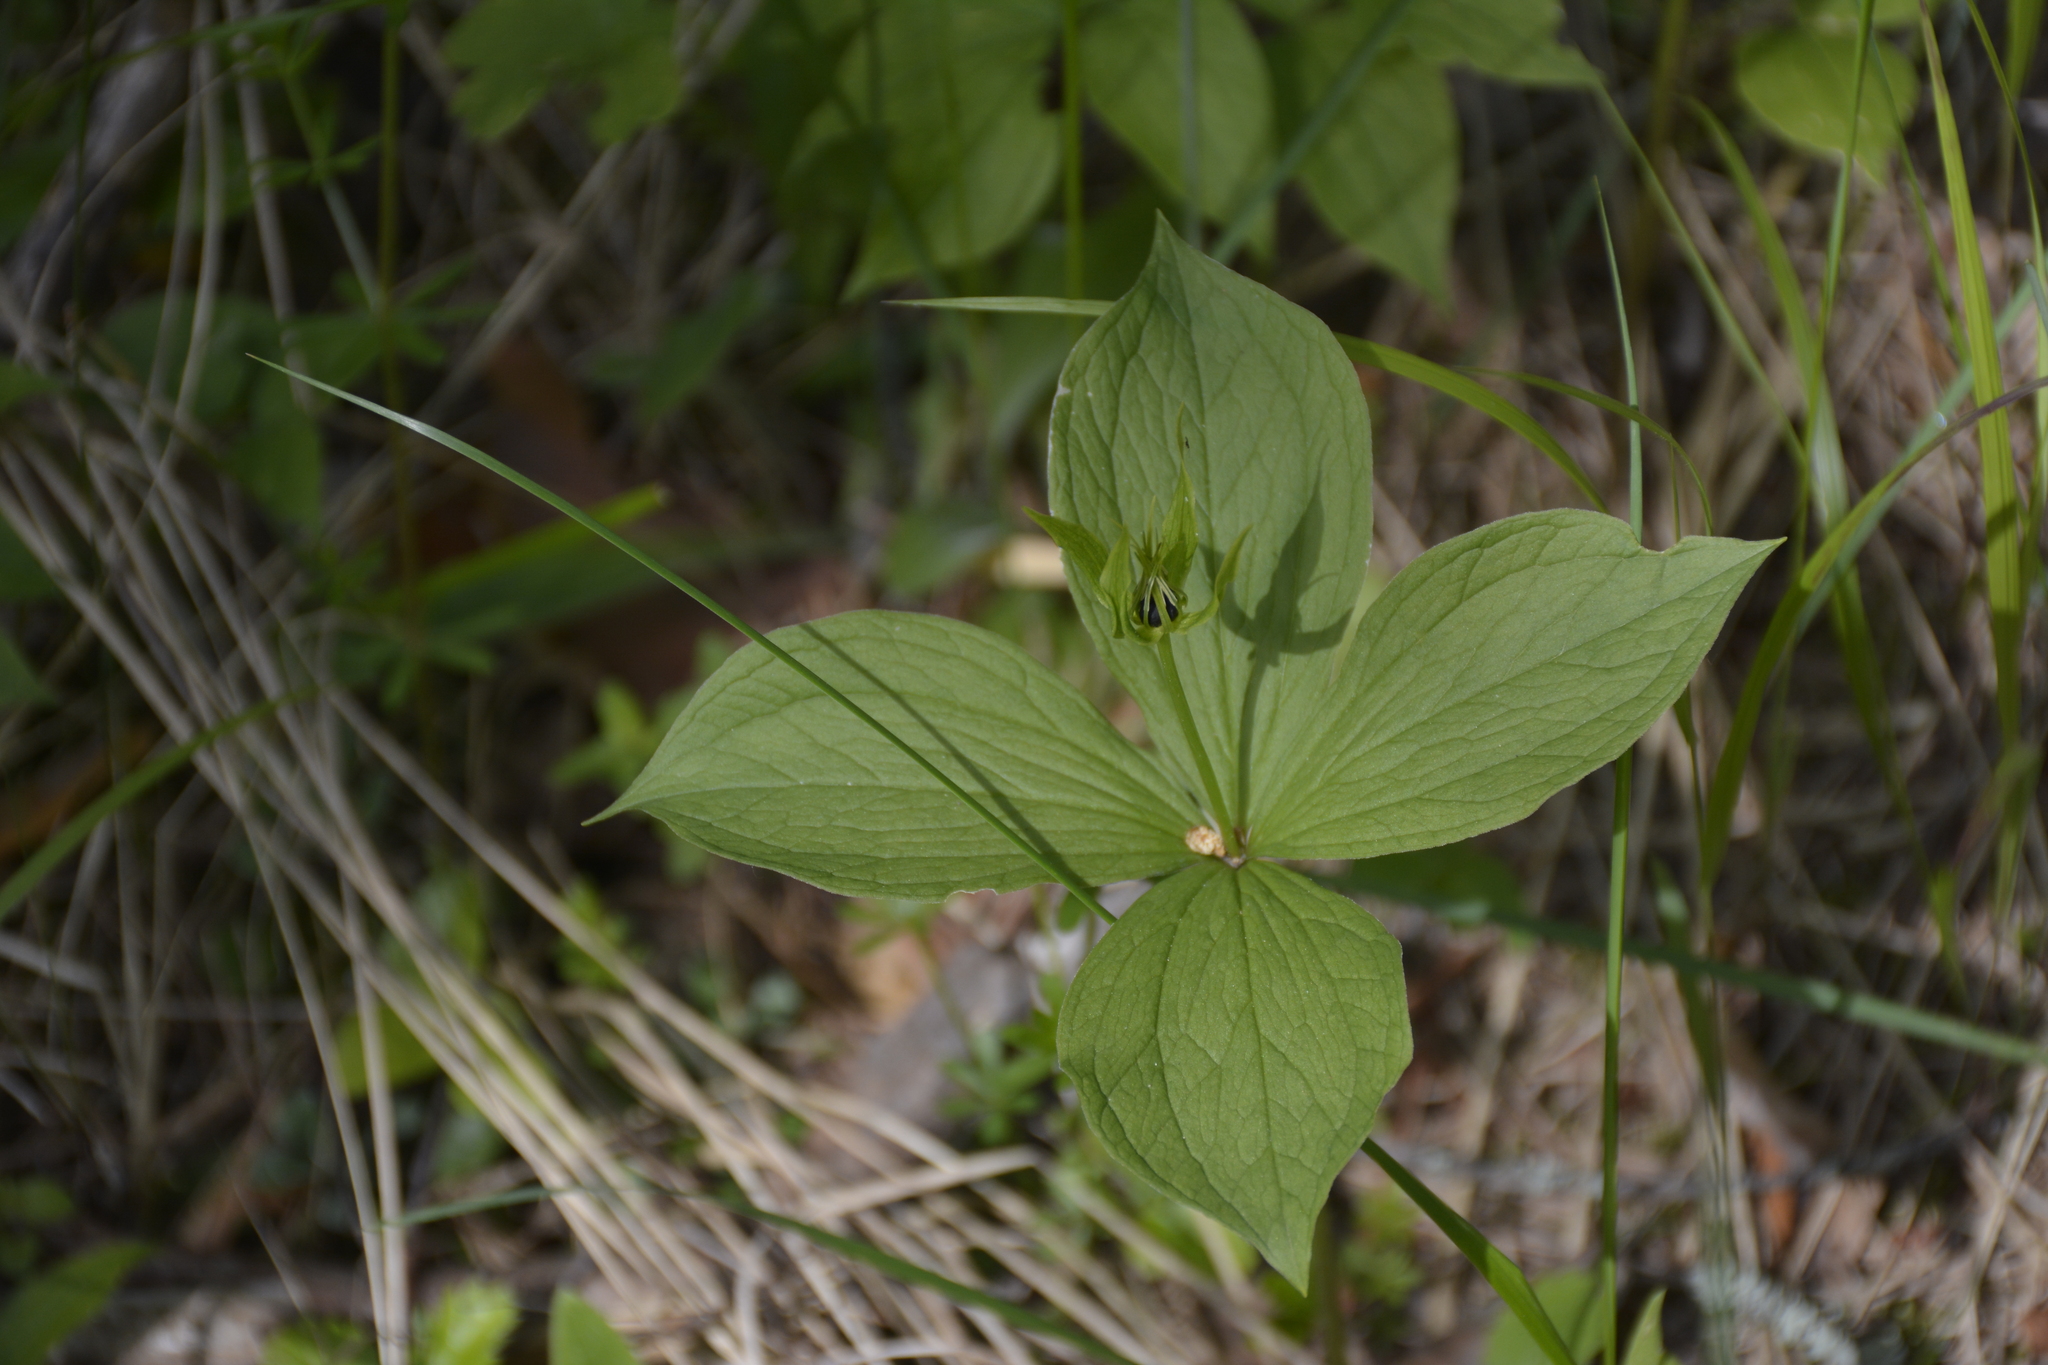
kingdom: Plantae
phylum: Tracheophyta
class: Liliopsida
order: Liliales
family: Melanthiaceae
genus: Paris
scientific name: Paris quadrifolia
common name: Herb-paris
